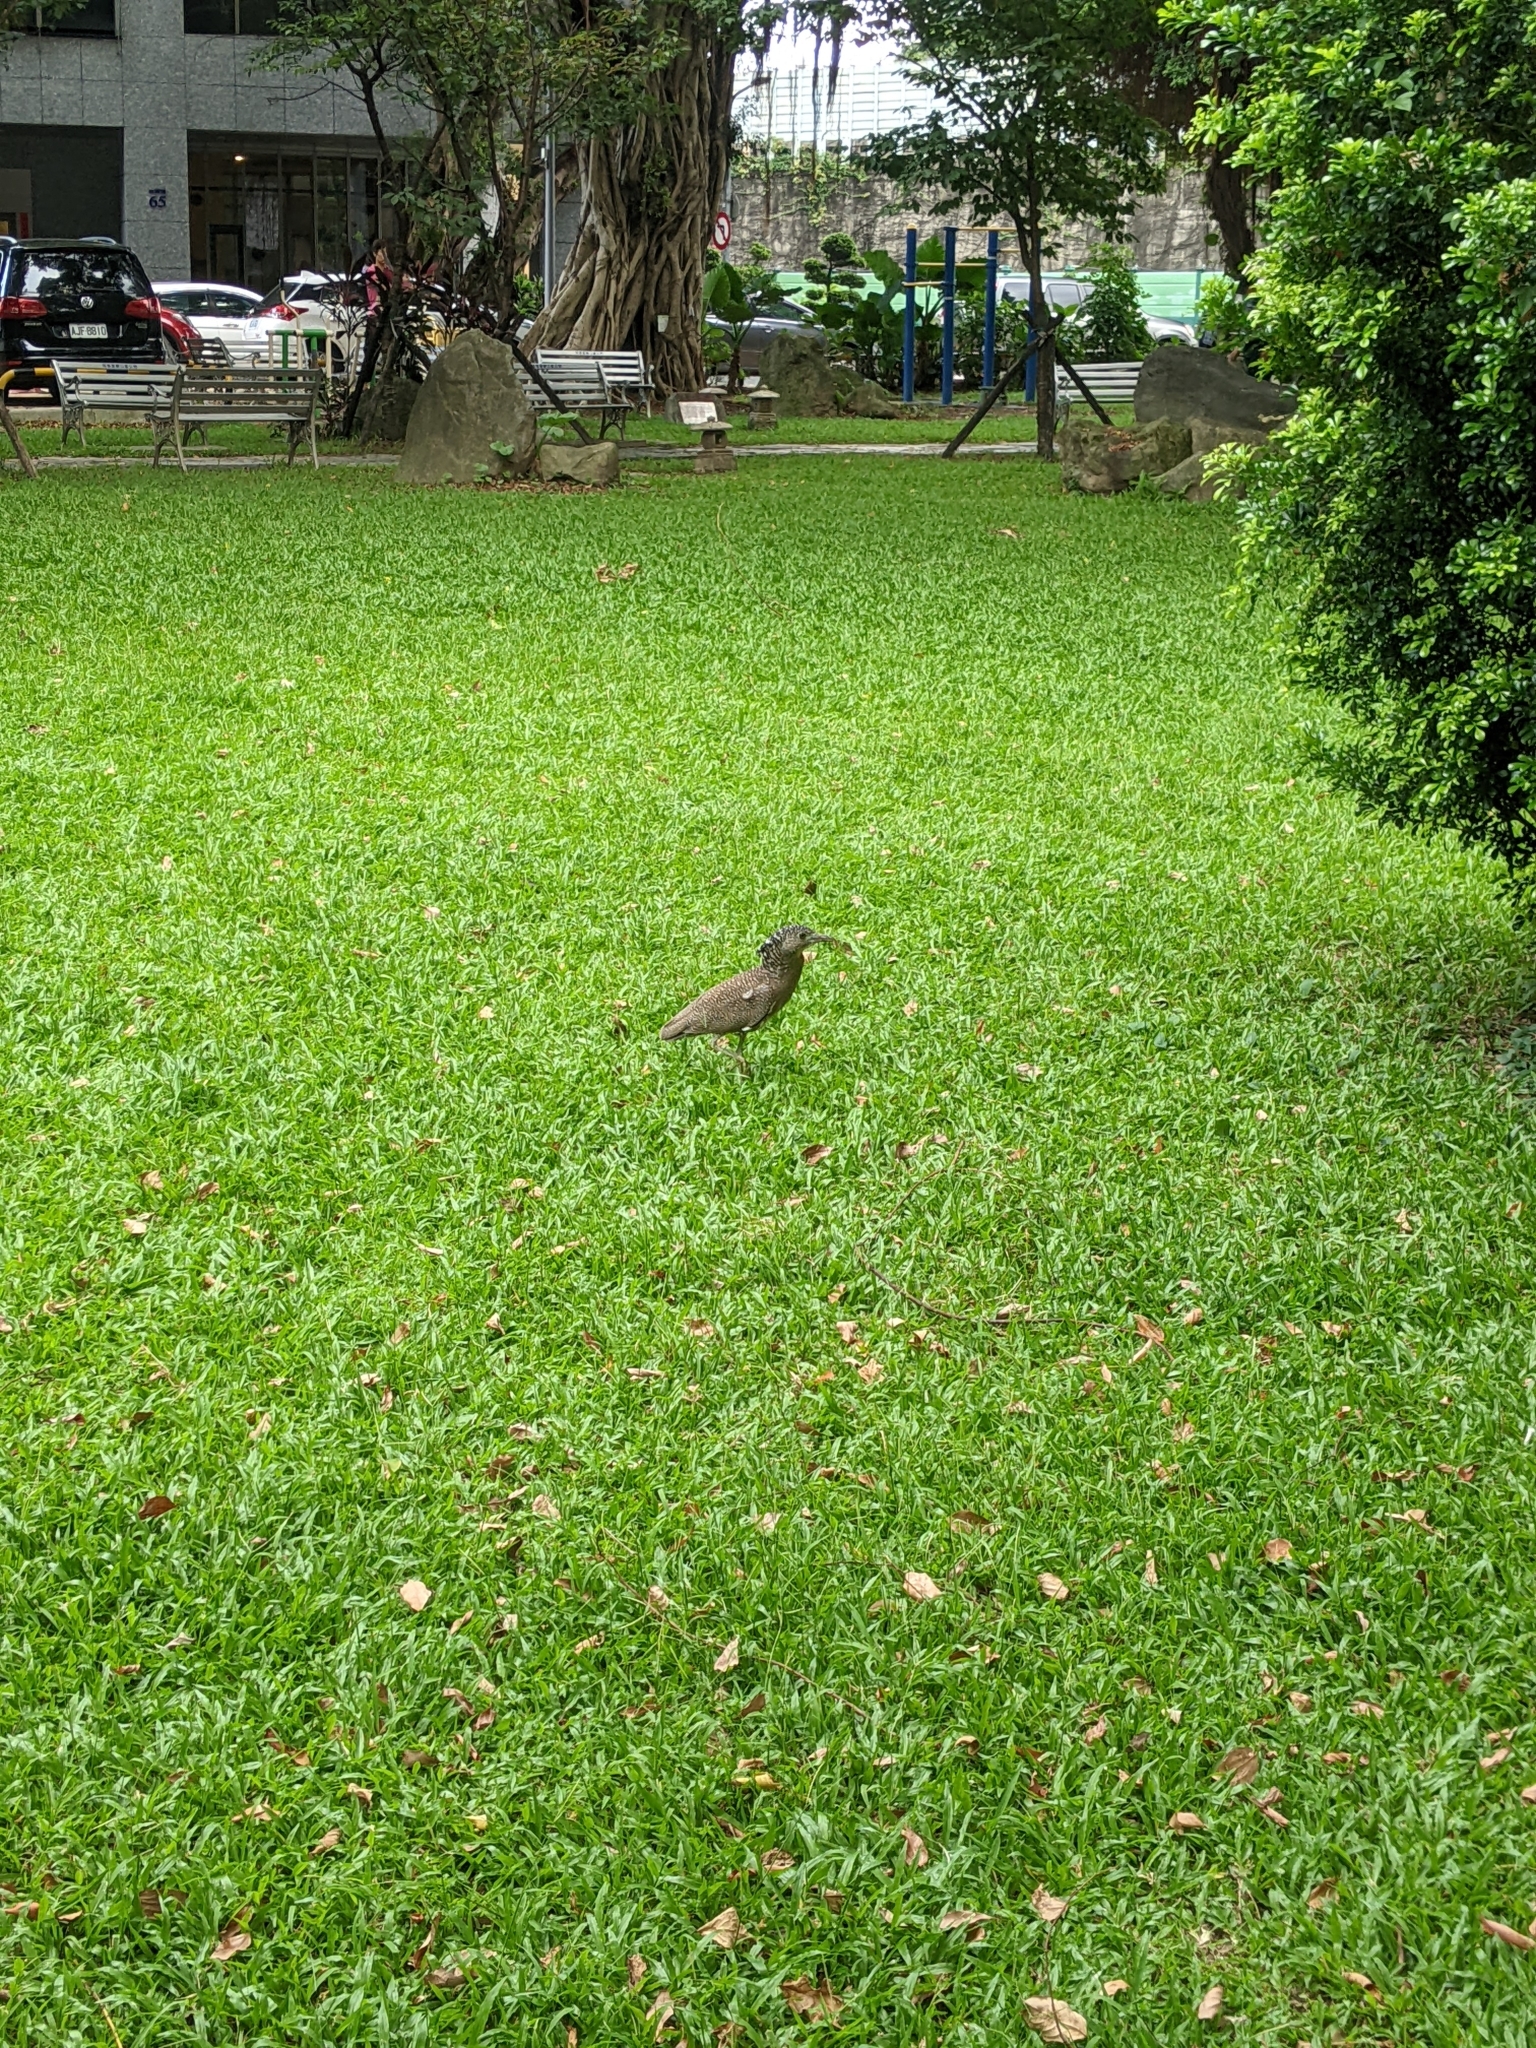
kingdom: Animalia
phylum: Chordata
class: Aves
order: Pelecaniformes
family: Ardeidae
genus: Gorsachius
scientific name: Gorsachius melanolophus
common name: Malayan night heron
